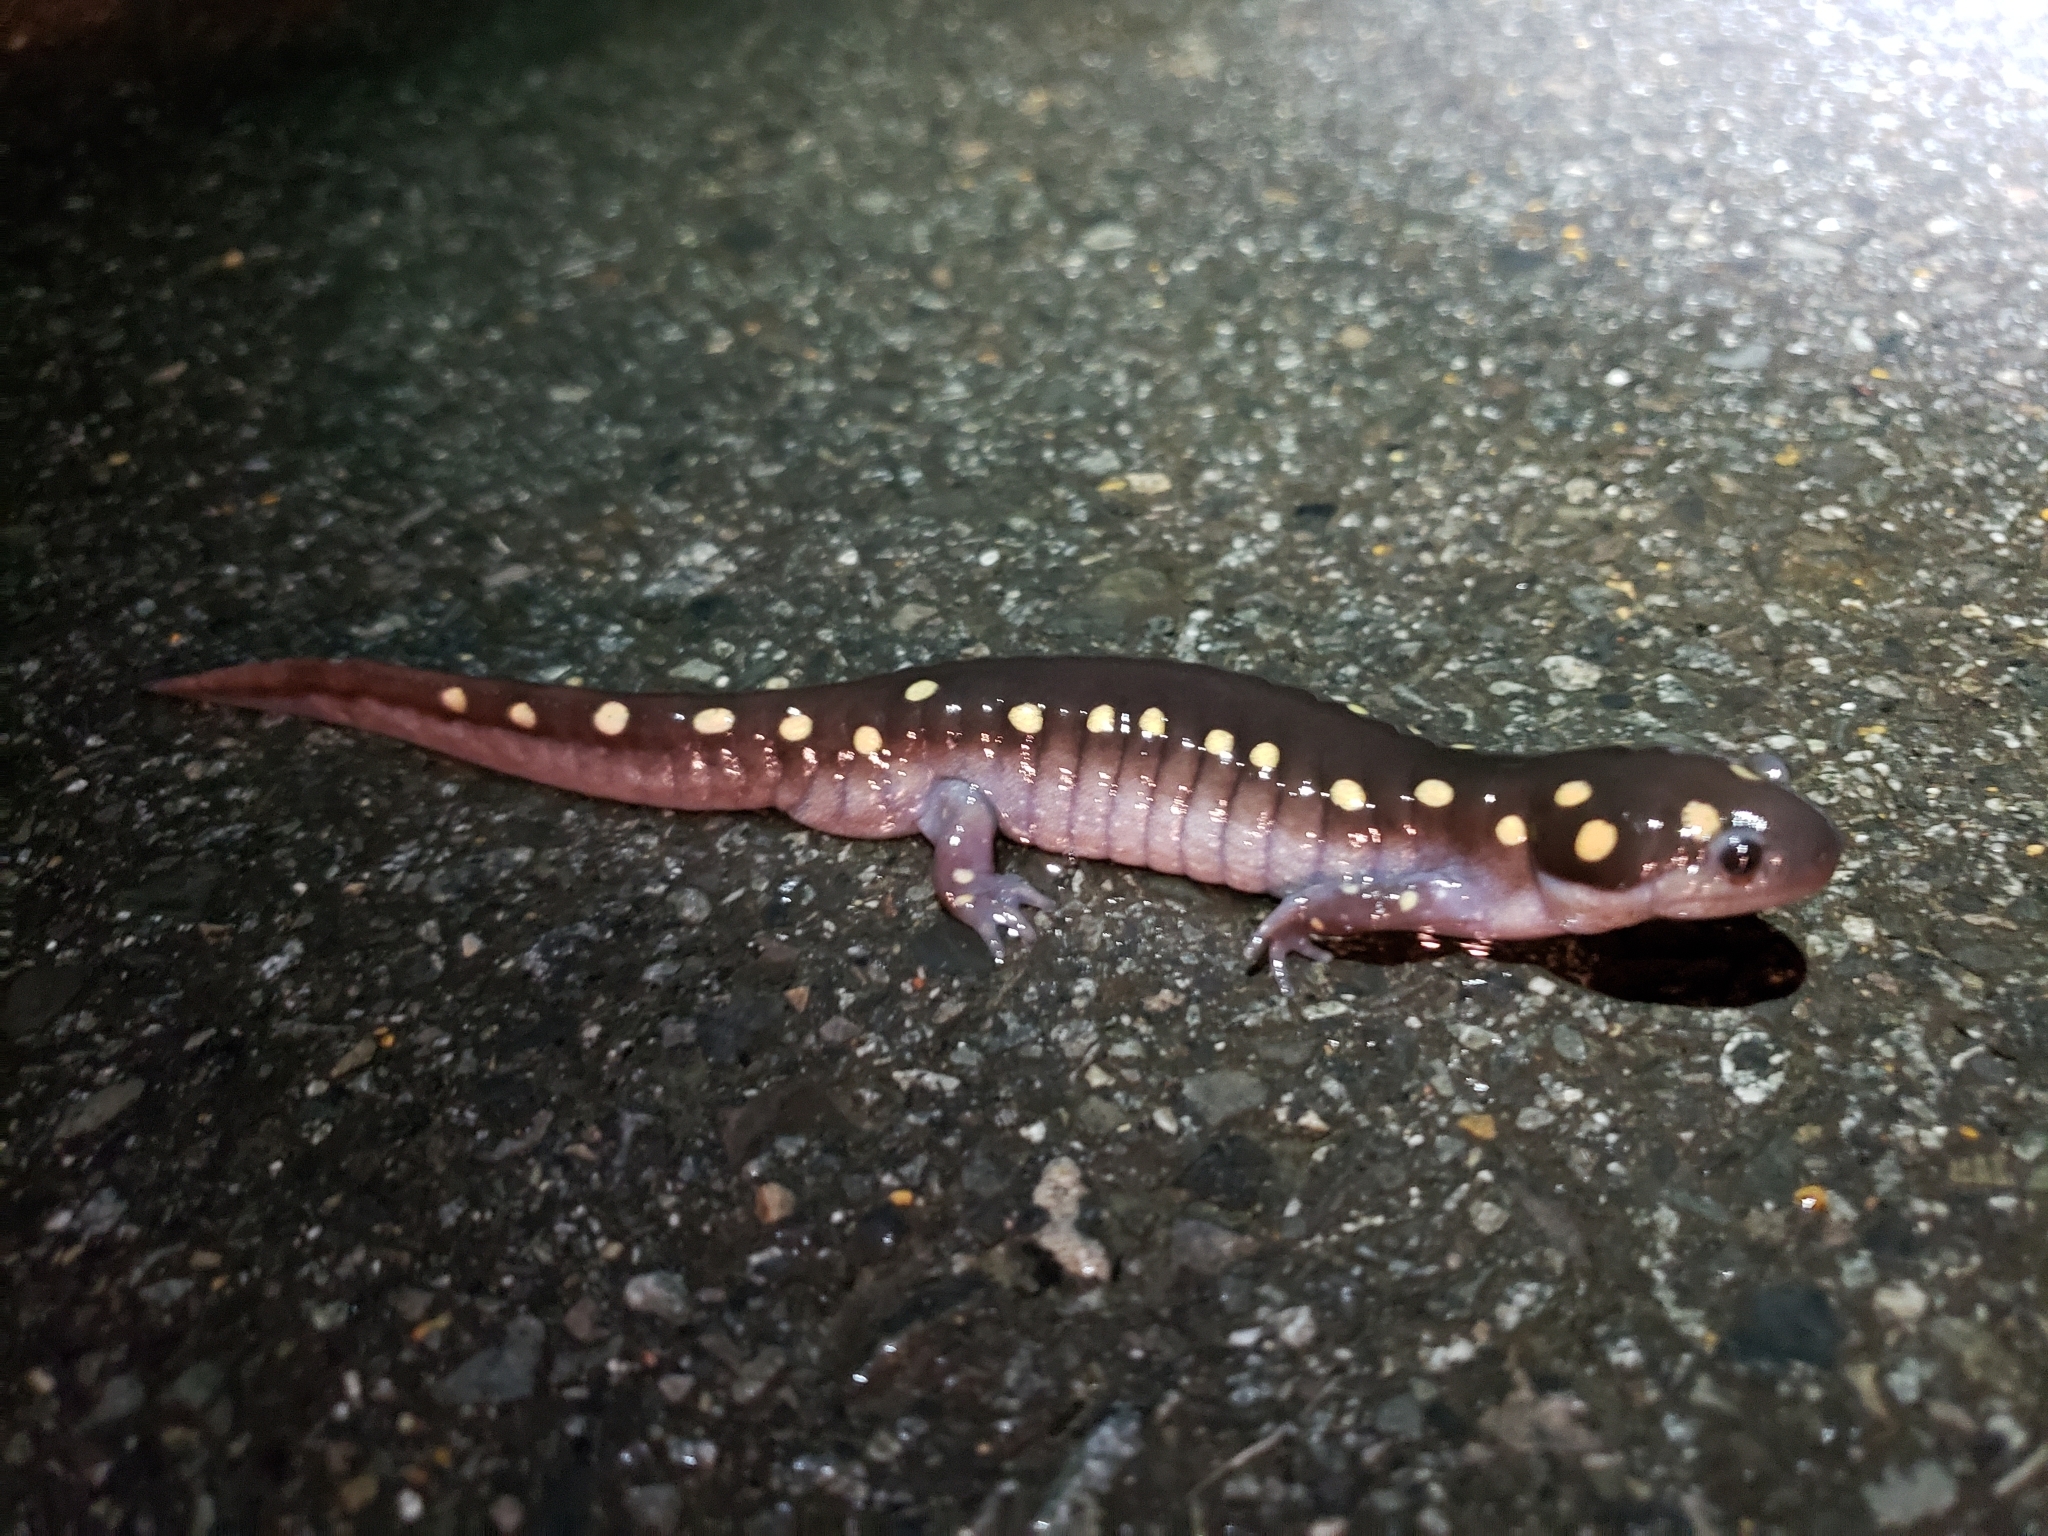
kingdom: Animalia
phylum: Chordata
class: Amphibia
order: Caudata
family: Ambystomatidae
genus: Ambystoma
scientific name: Ambystoma maculatum
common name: Spotted salamander
